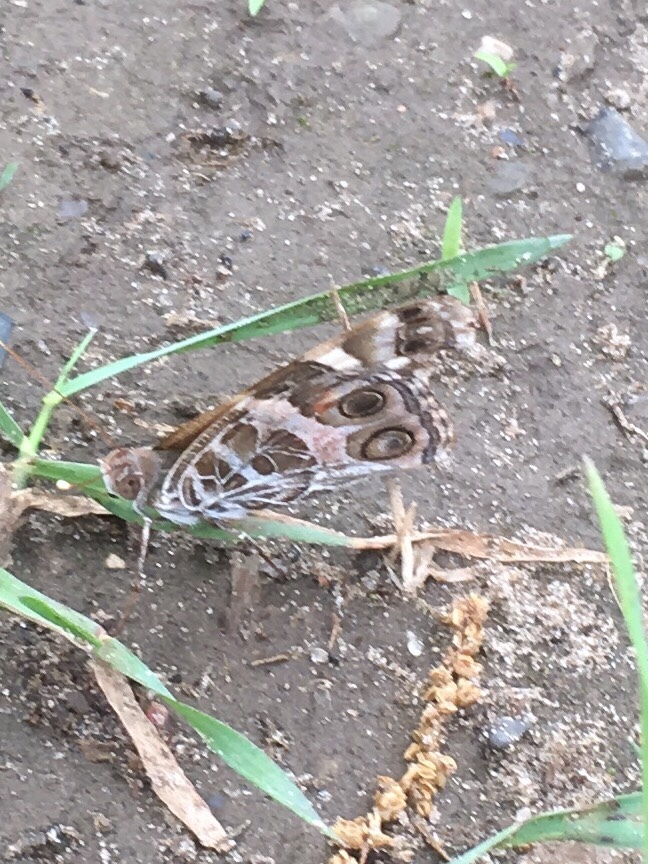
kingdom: Animalia
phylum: Arthropoda
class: Insecta
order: Lepidoptera
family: Nymphalidae
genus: Vanessa
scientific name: Vanessa virginiensis
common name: American lady
